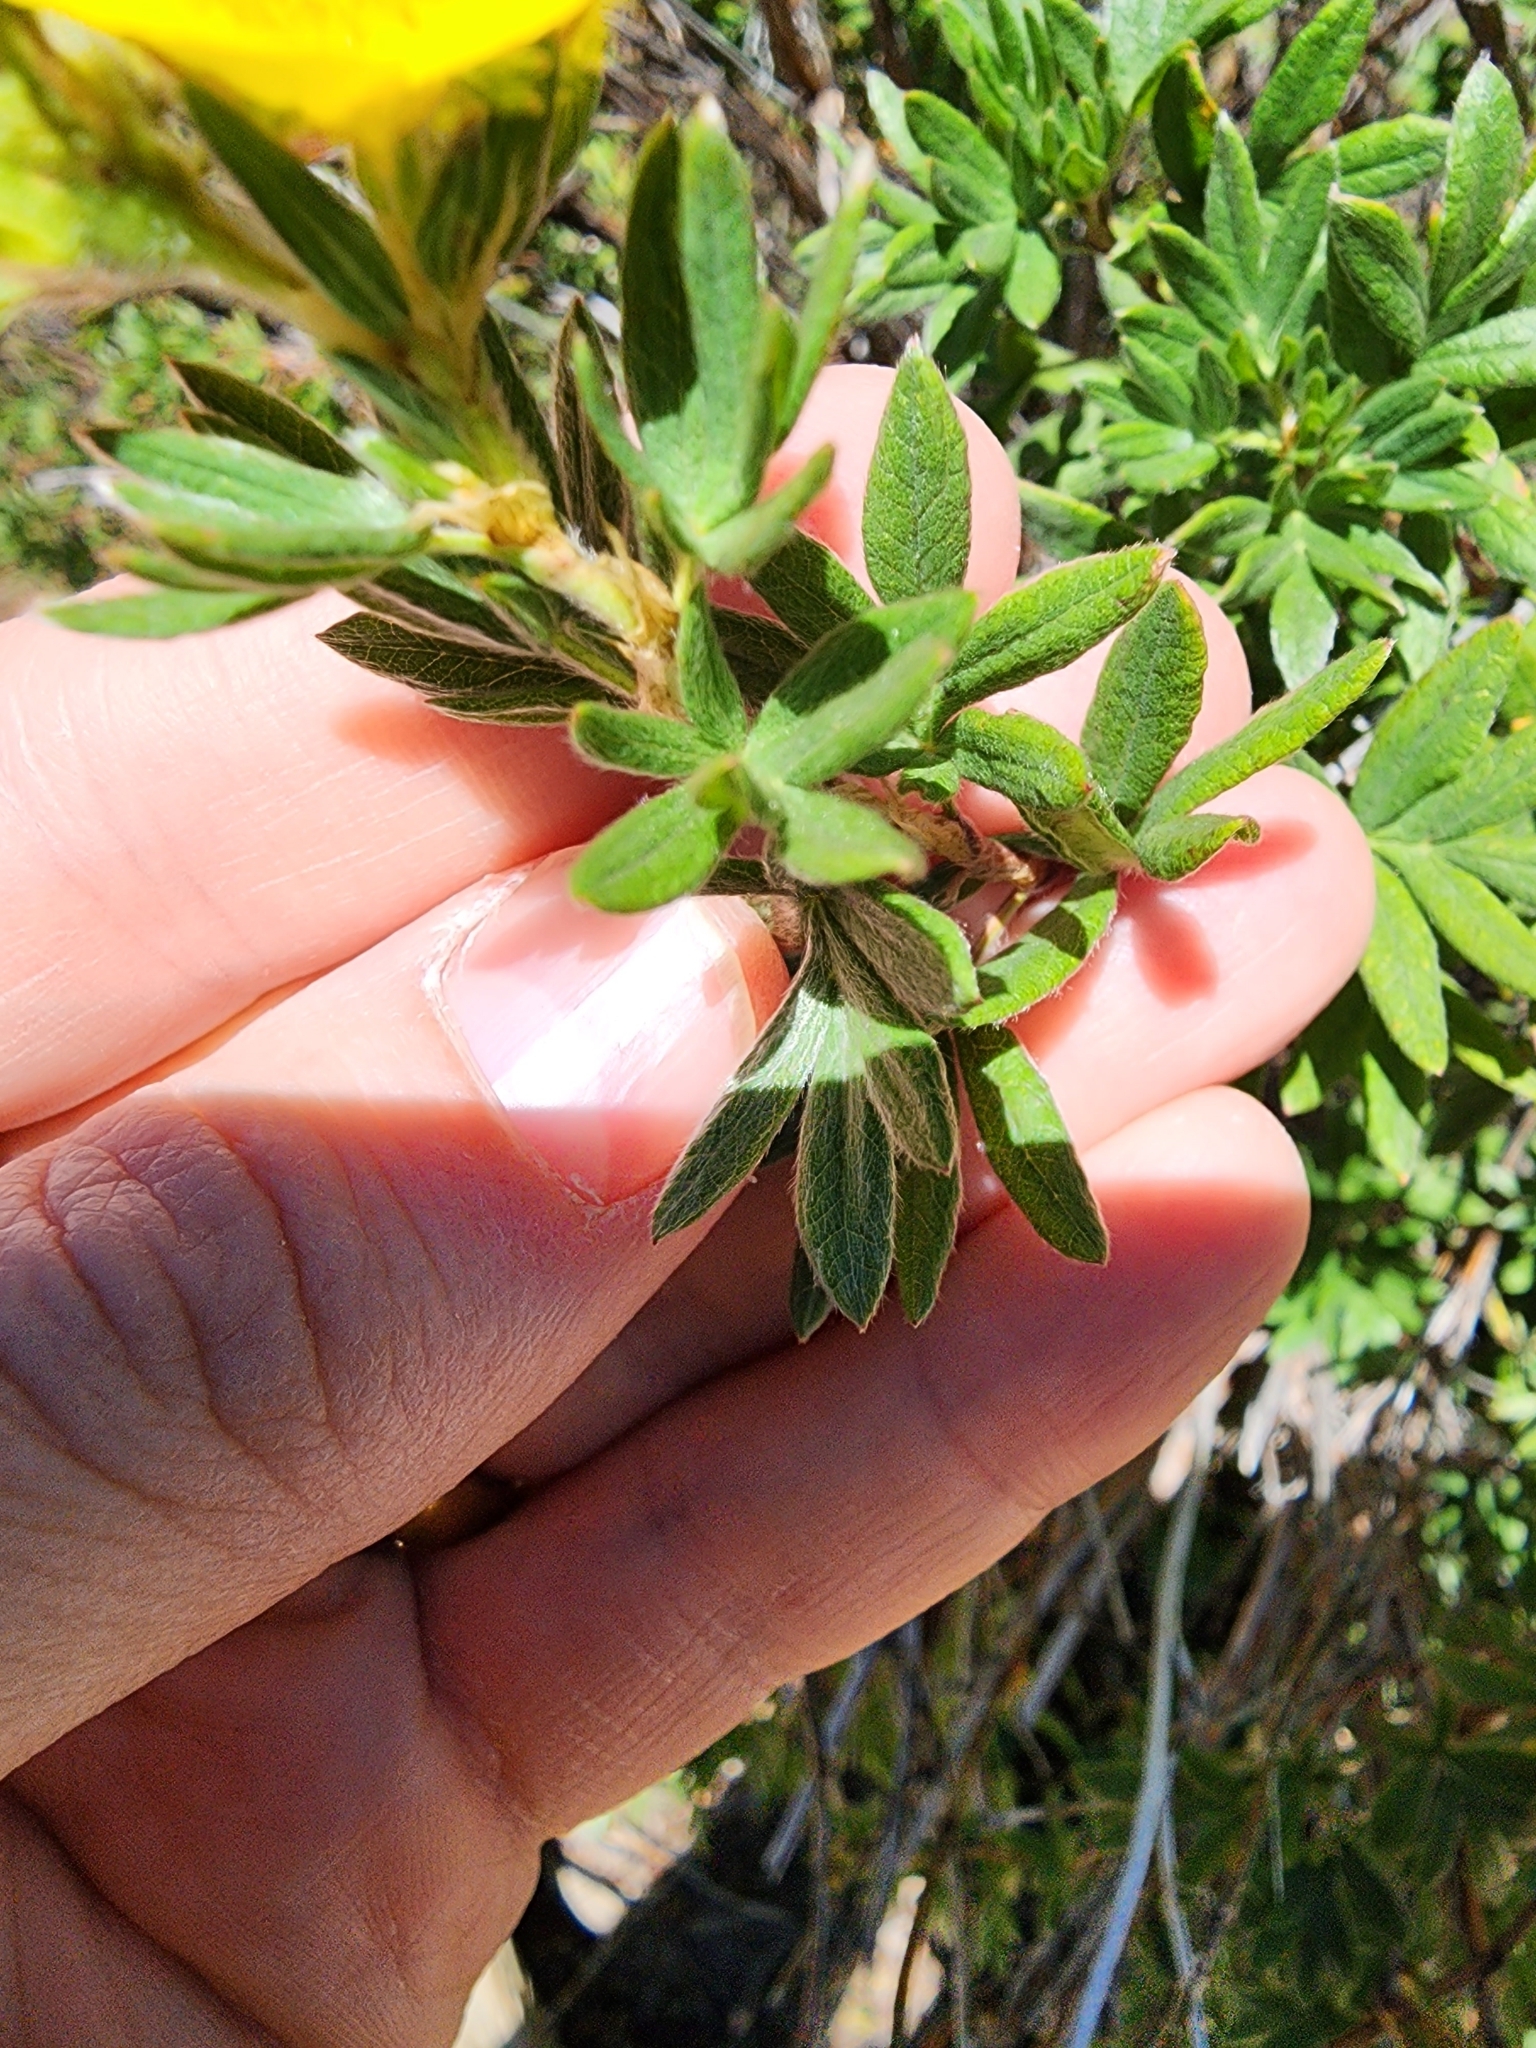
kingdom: Plantae
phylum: Tracheophyta
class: Magnoliopsida
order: Rosales
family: Rosaceae
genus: Dasiphora
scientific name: Dasiphora fruticosa
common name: Shrubby cinquefoil
